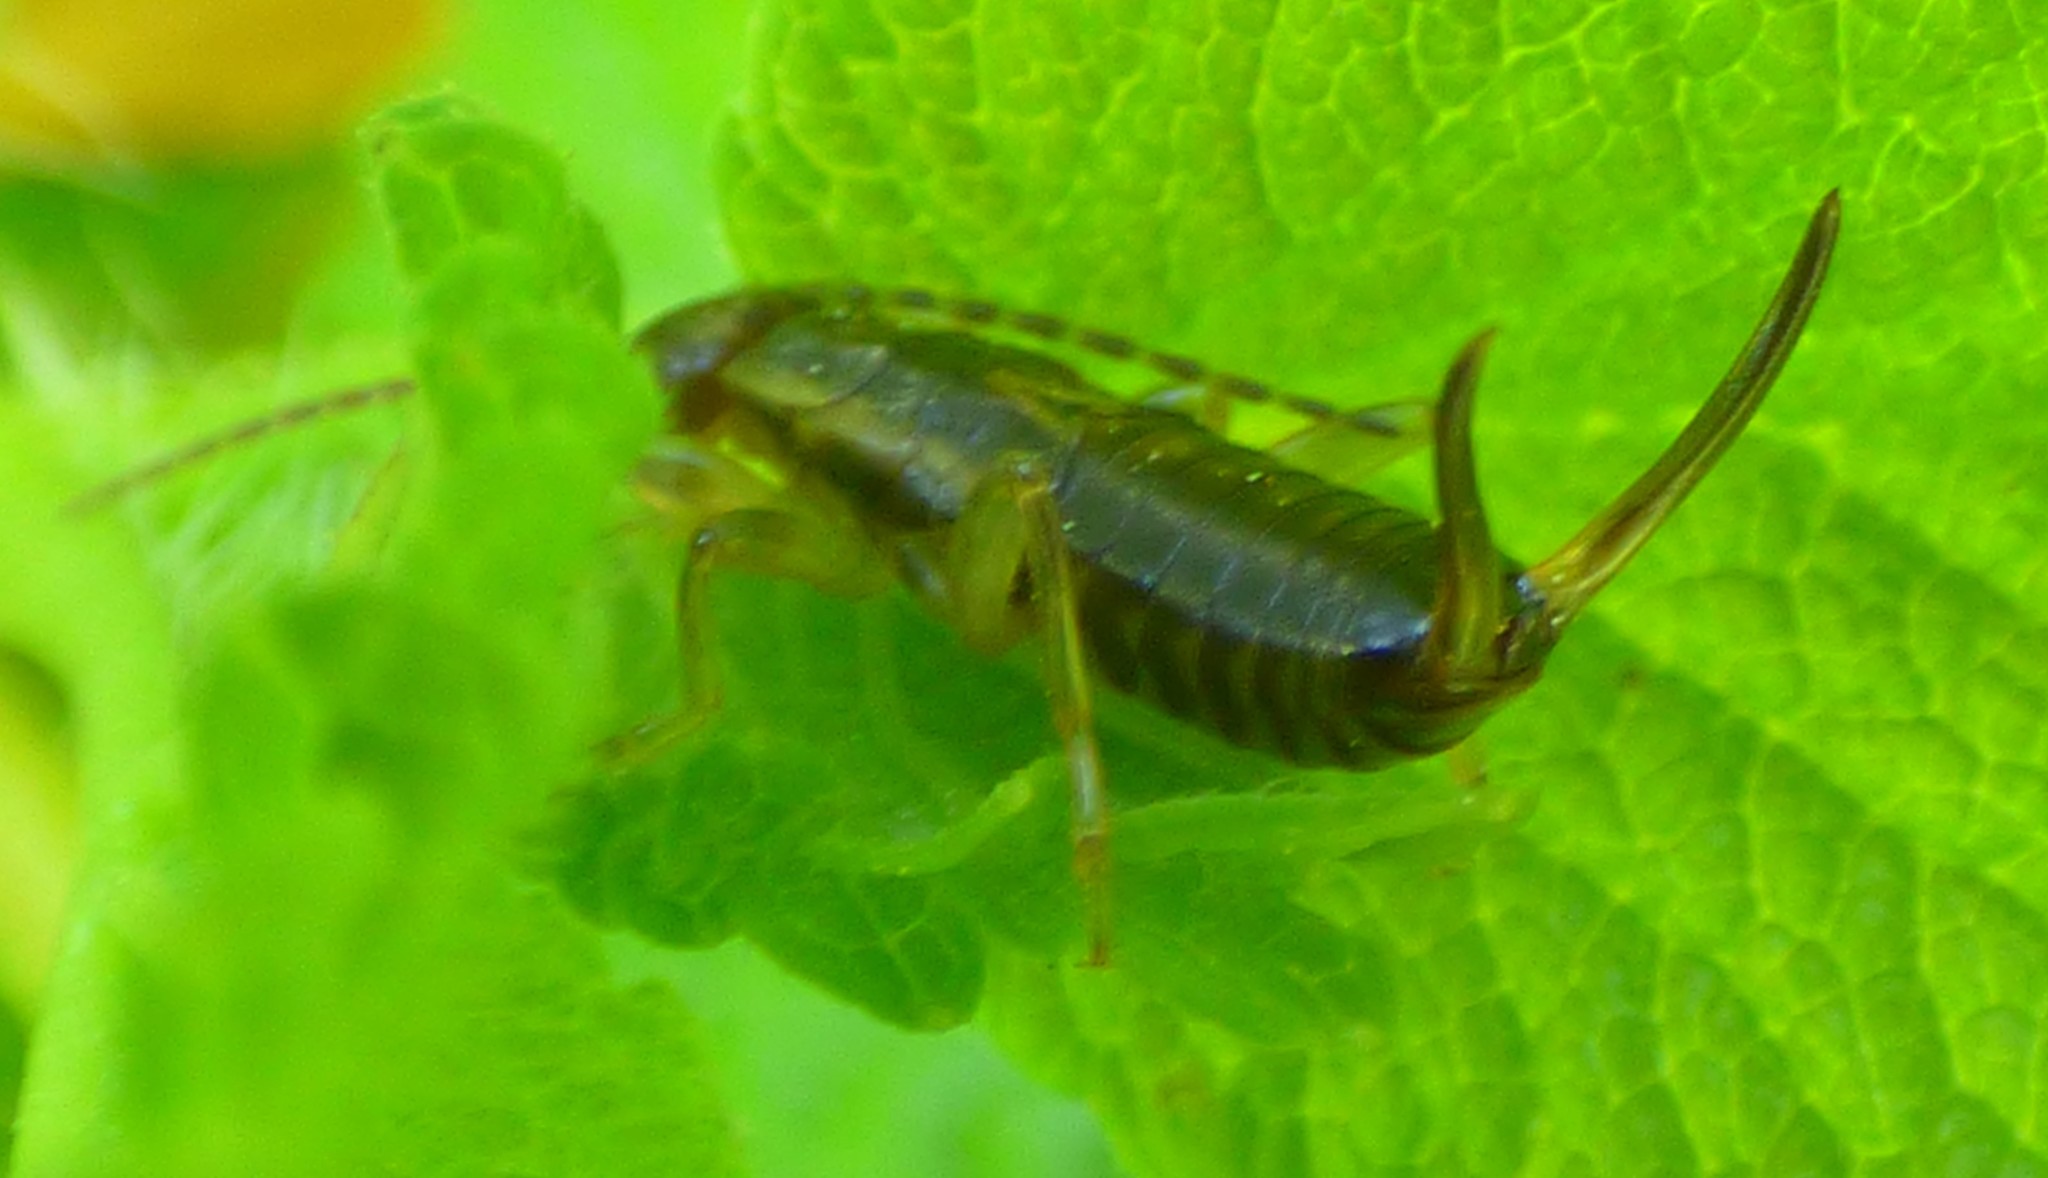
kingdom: Animalia
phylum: Arthropoda
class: Insecta
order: Dermaptera
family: Forficulidae
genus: Forficula
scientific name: Forficula
